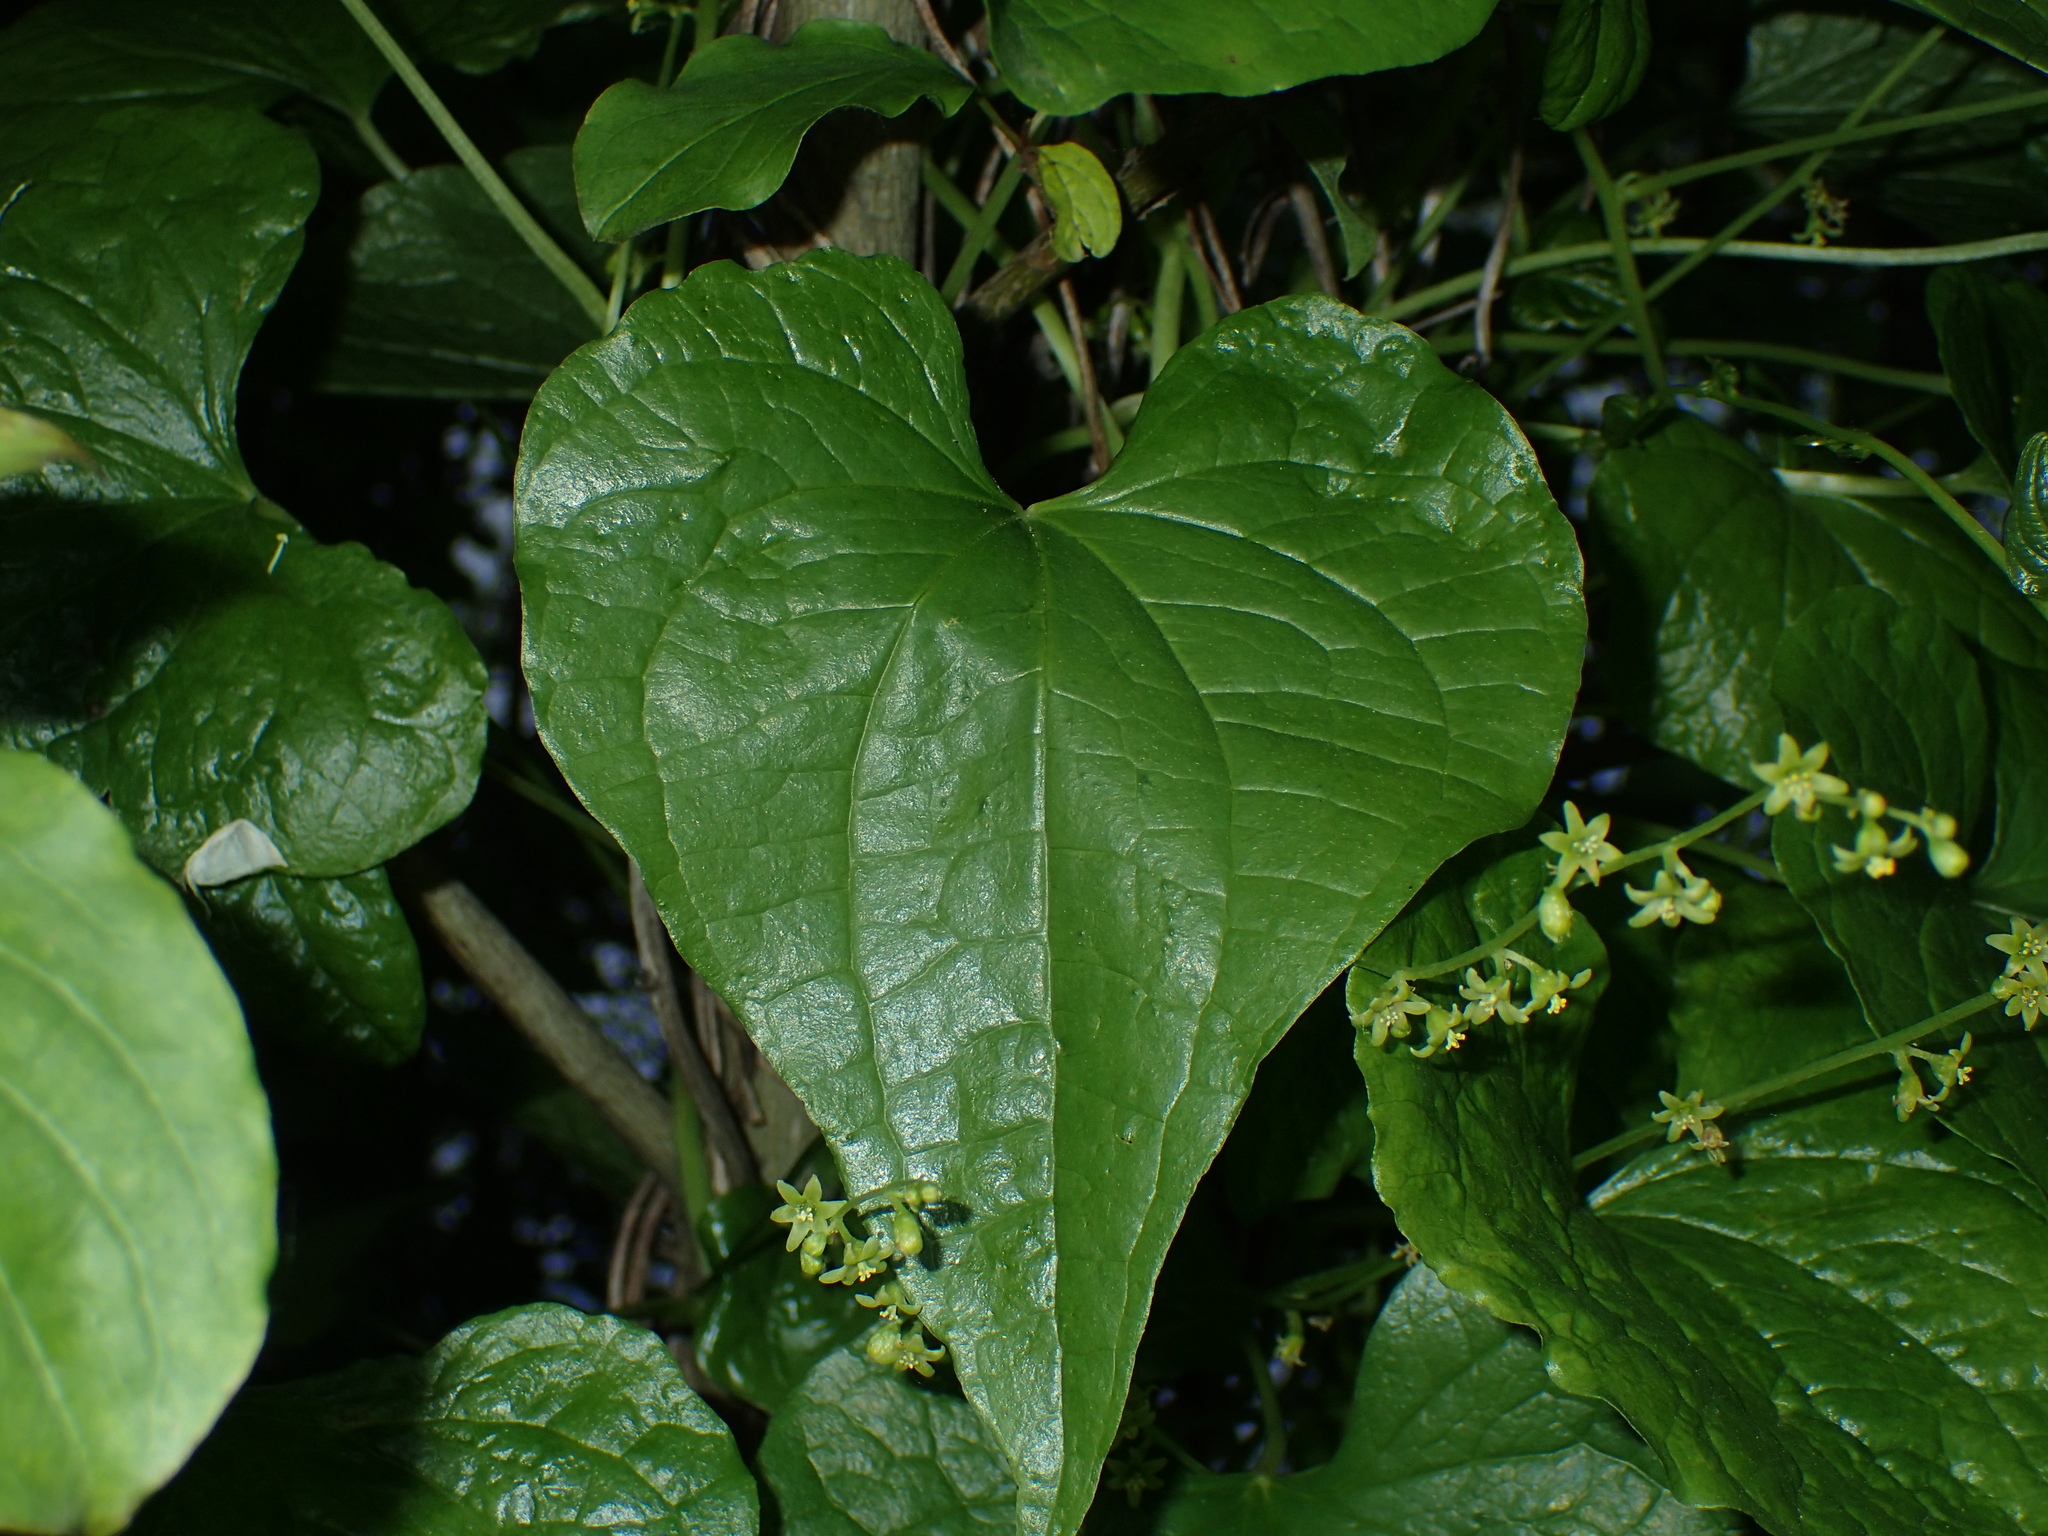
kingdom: Plantae
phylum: Tracheophyta
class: Liliopsida
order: Dioscoreales
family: Dioscoreaceae
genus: Dioscorea
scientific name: Dioscorea communis
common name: Black-bindweed
